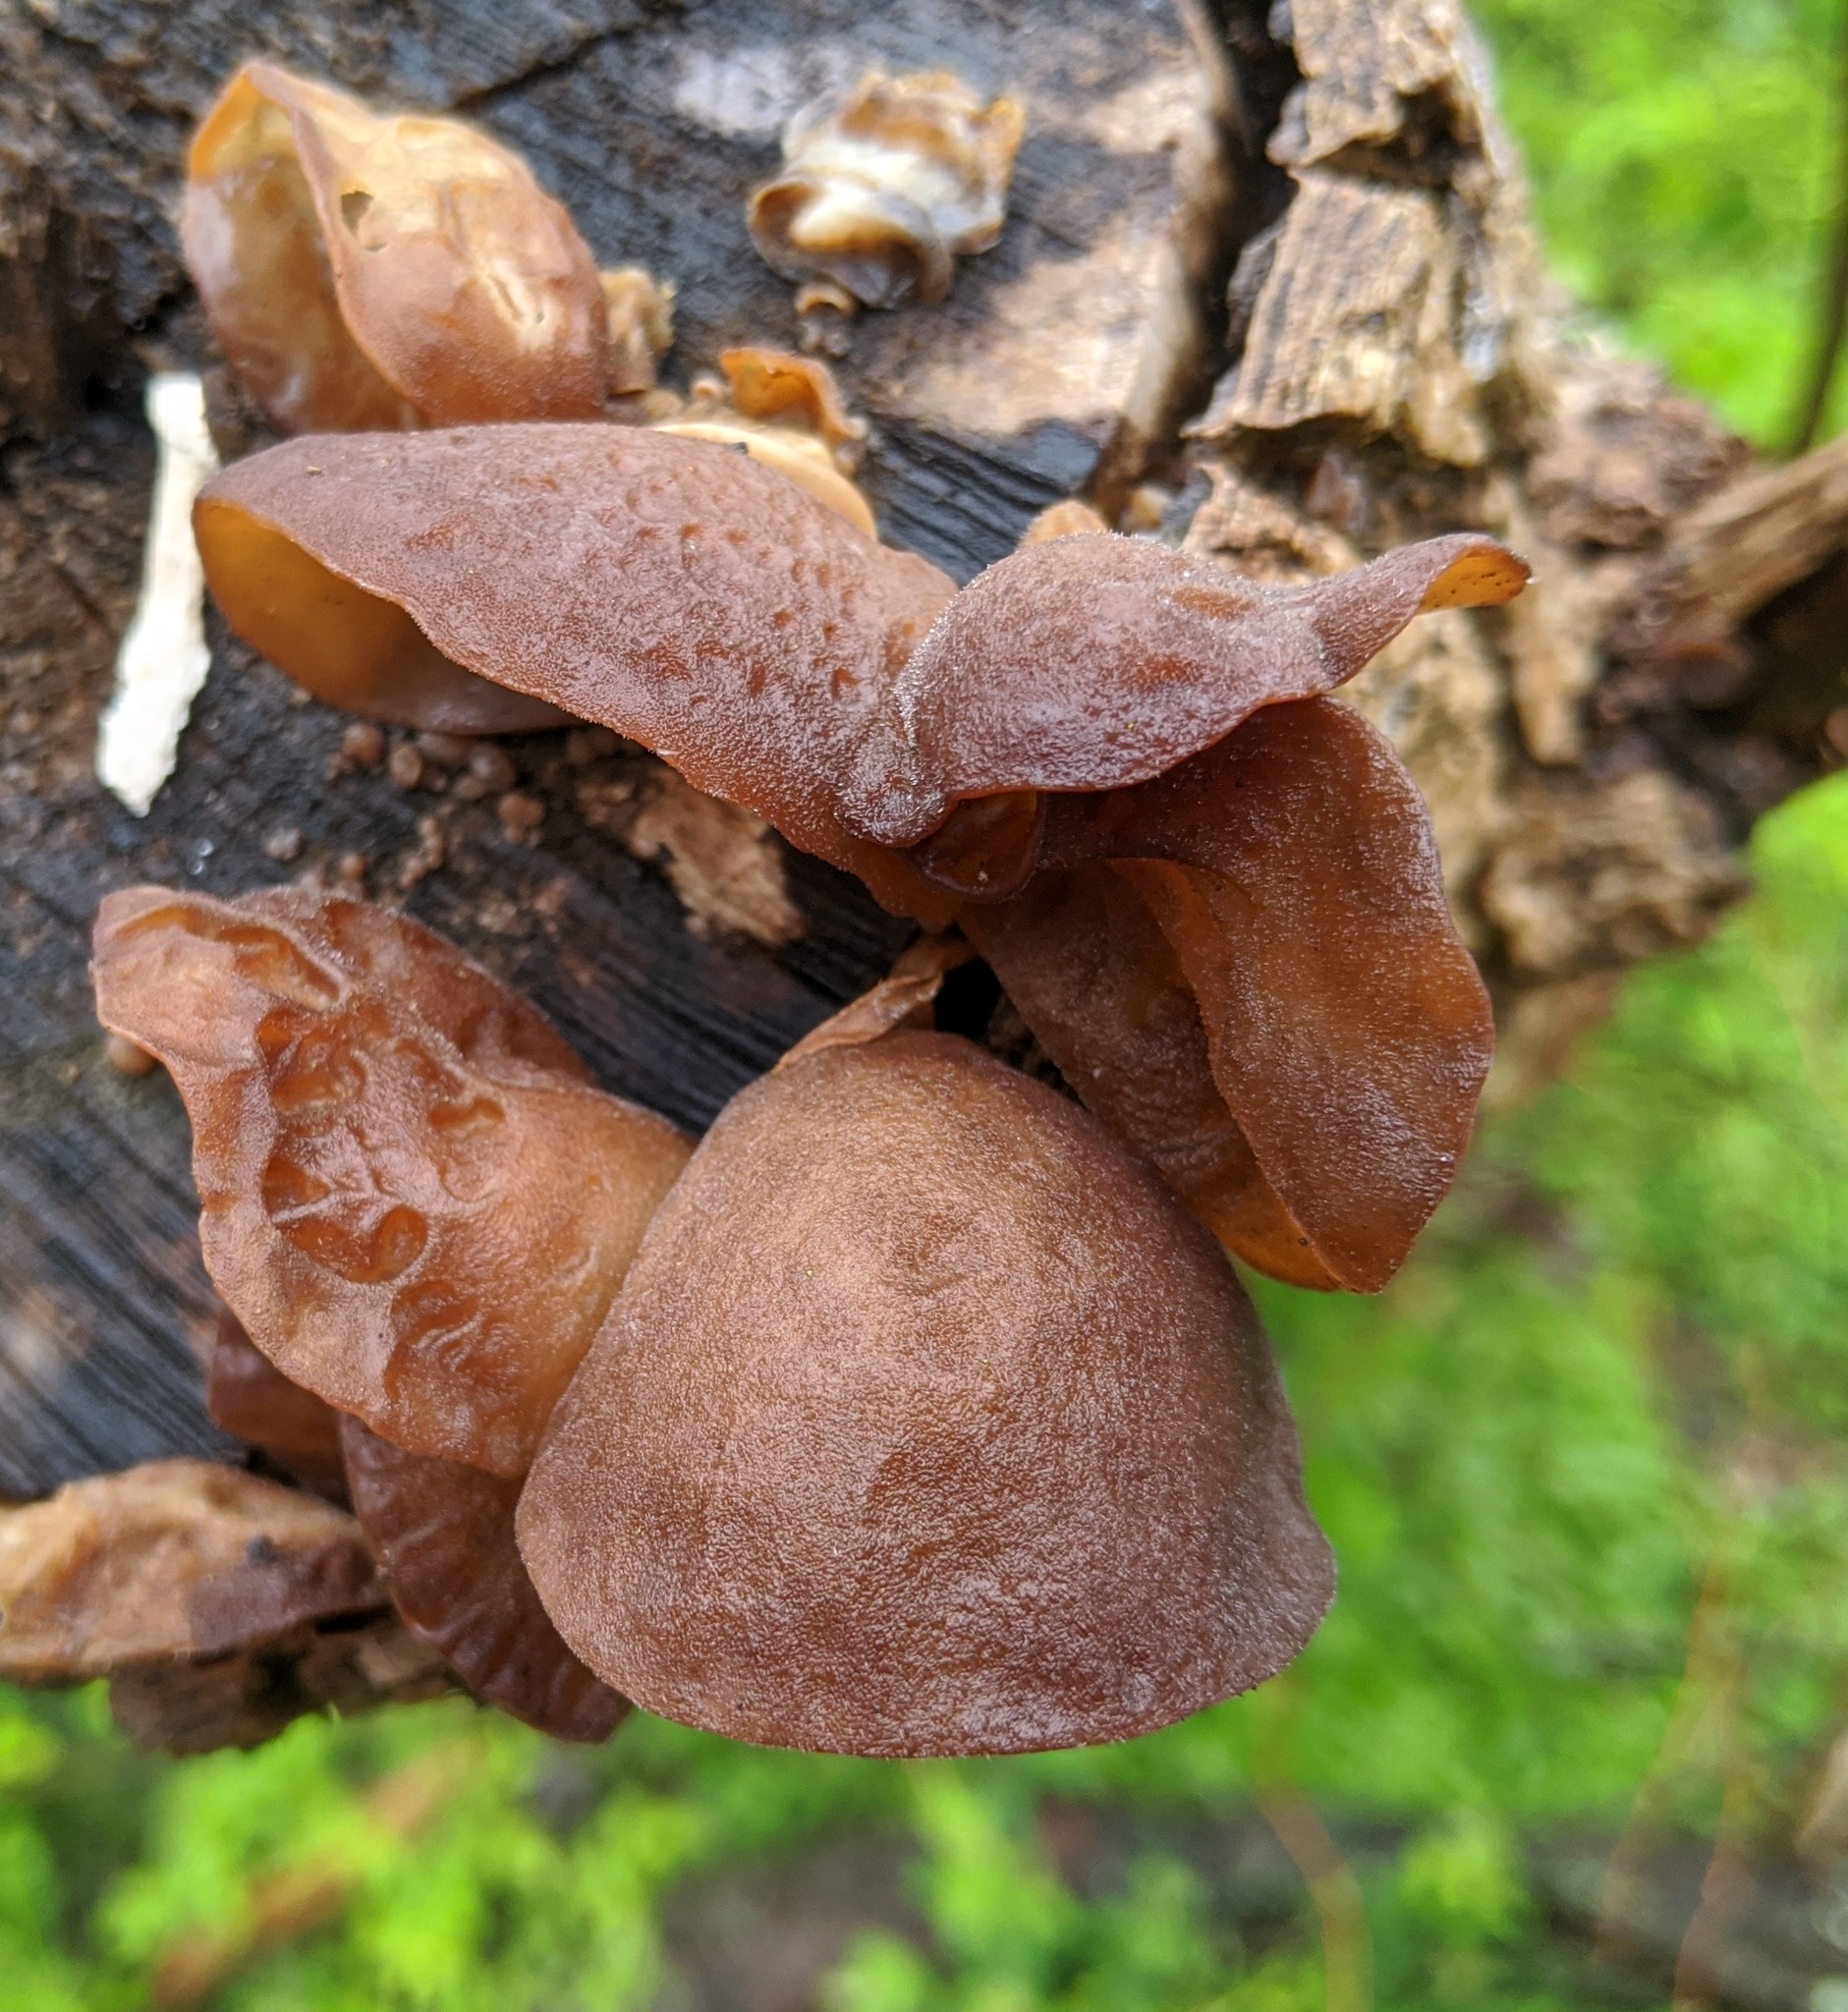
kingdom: Fungi
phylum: Basidiomycota
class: Agaricomycetes
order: Auriculariales
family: Auriculariaceae
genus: Auricularia
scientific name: Auricularia angiospermarum
